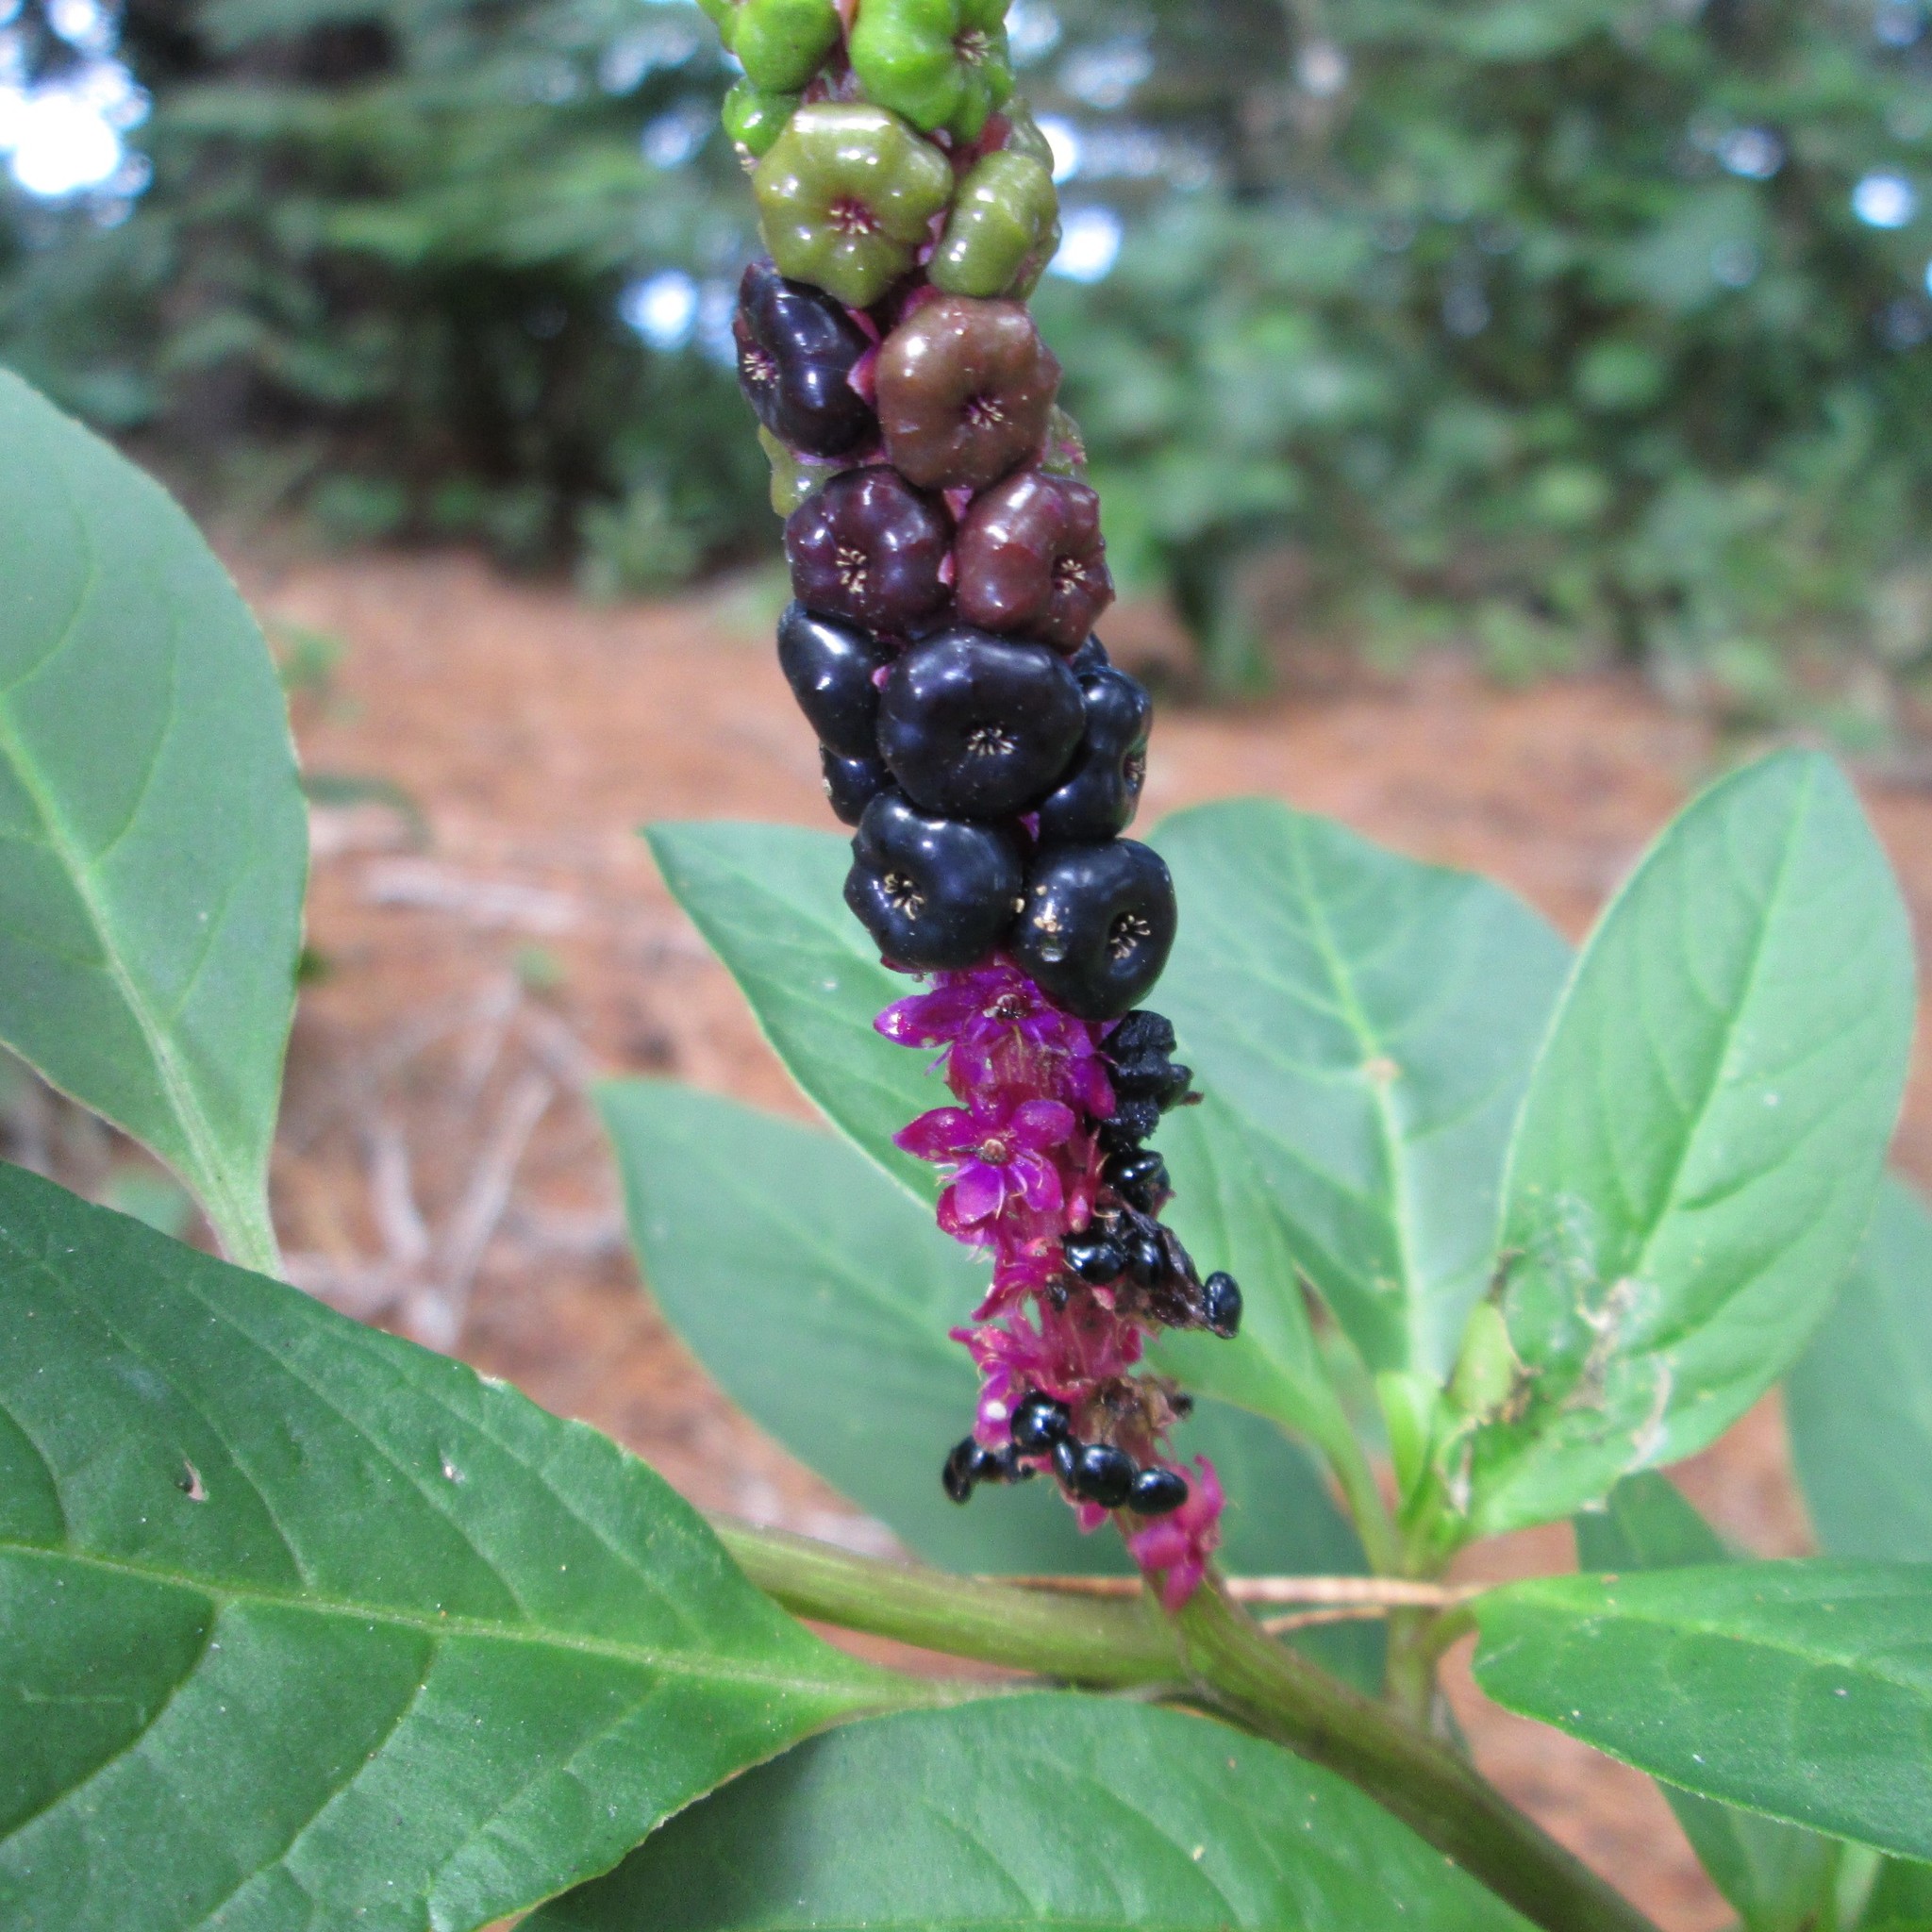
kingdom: Plantae
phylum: Tracheophyta
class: Magnoliopsida
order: Caryophyllales
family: Phytolaccaceae
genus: Phytolacca
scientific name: Phytolacca icosandra
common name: Button pokeweed
